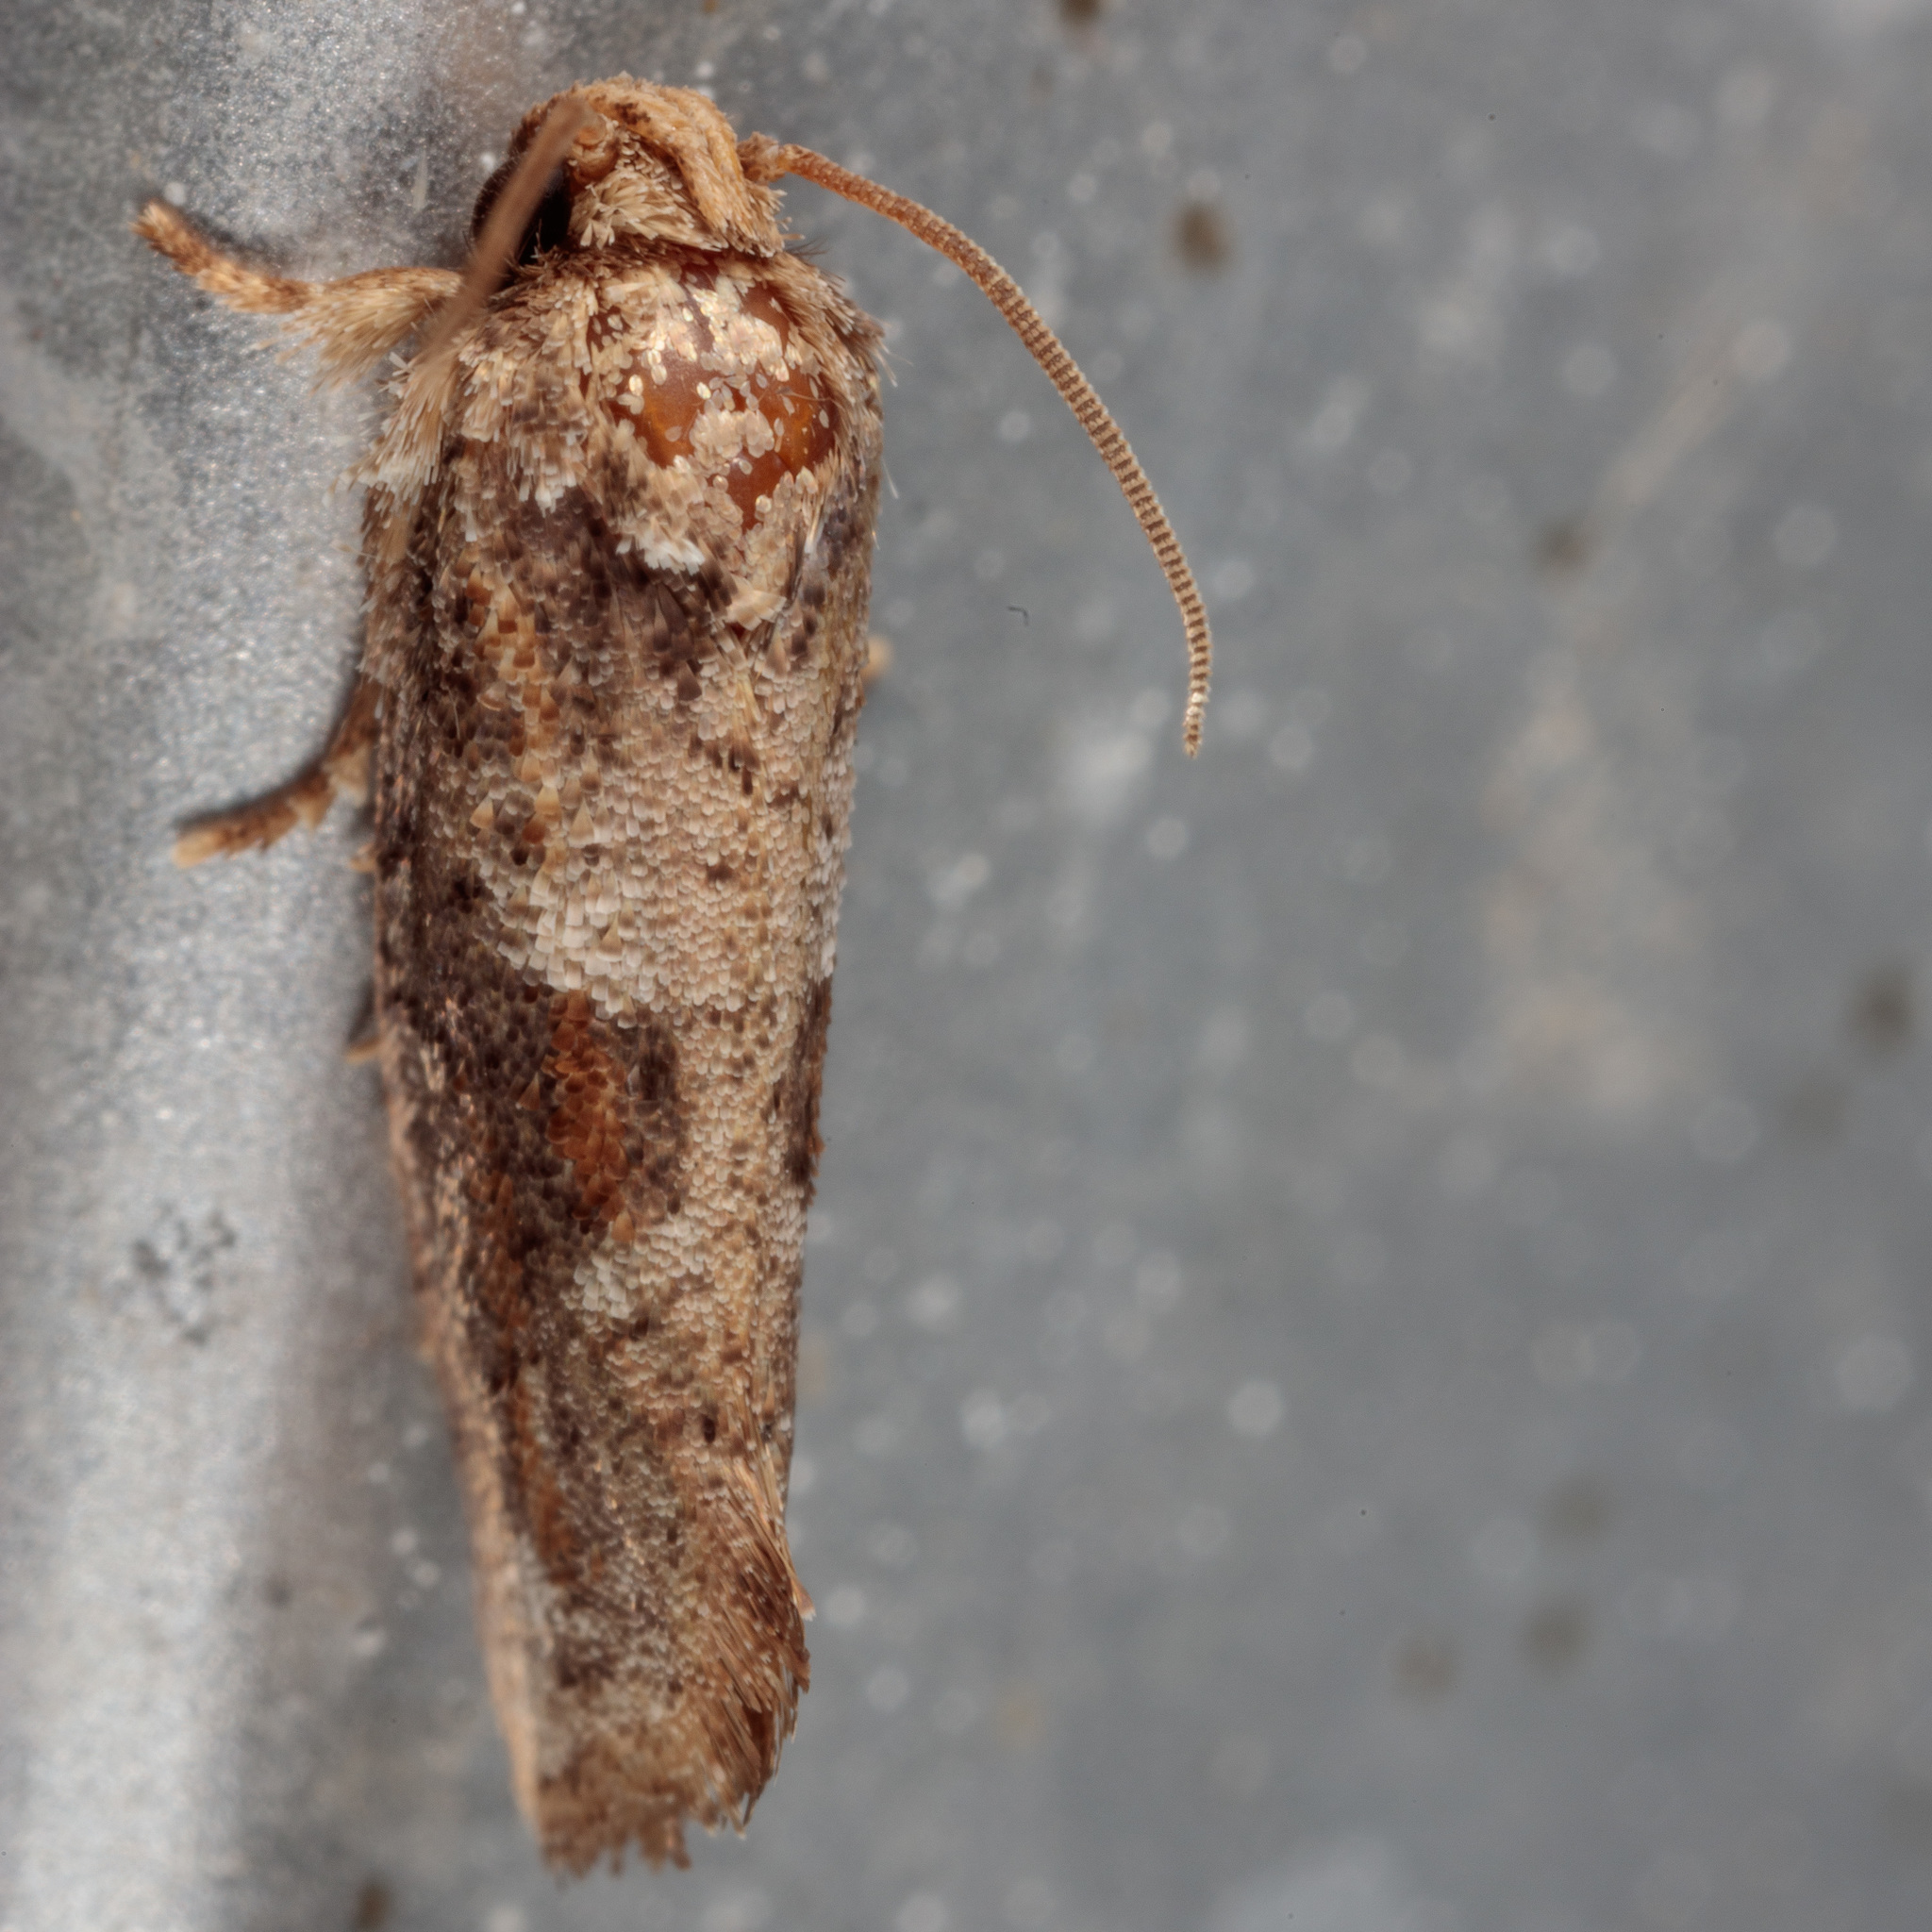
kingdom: Animalia
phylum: Arthropoda
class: Insecta
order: Lepidoptera
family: Tineidae
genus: Acrolophus
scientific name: Acrolophus piger
